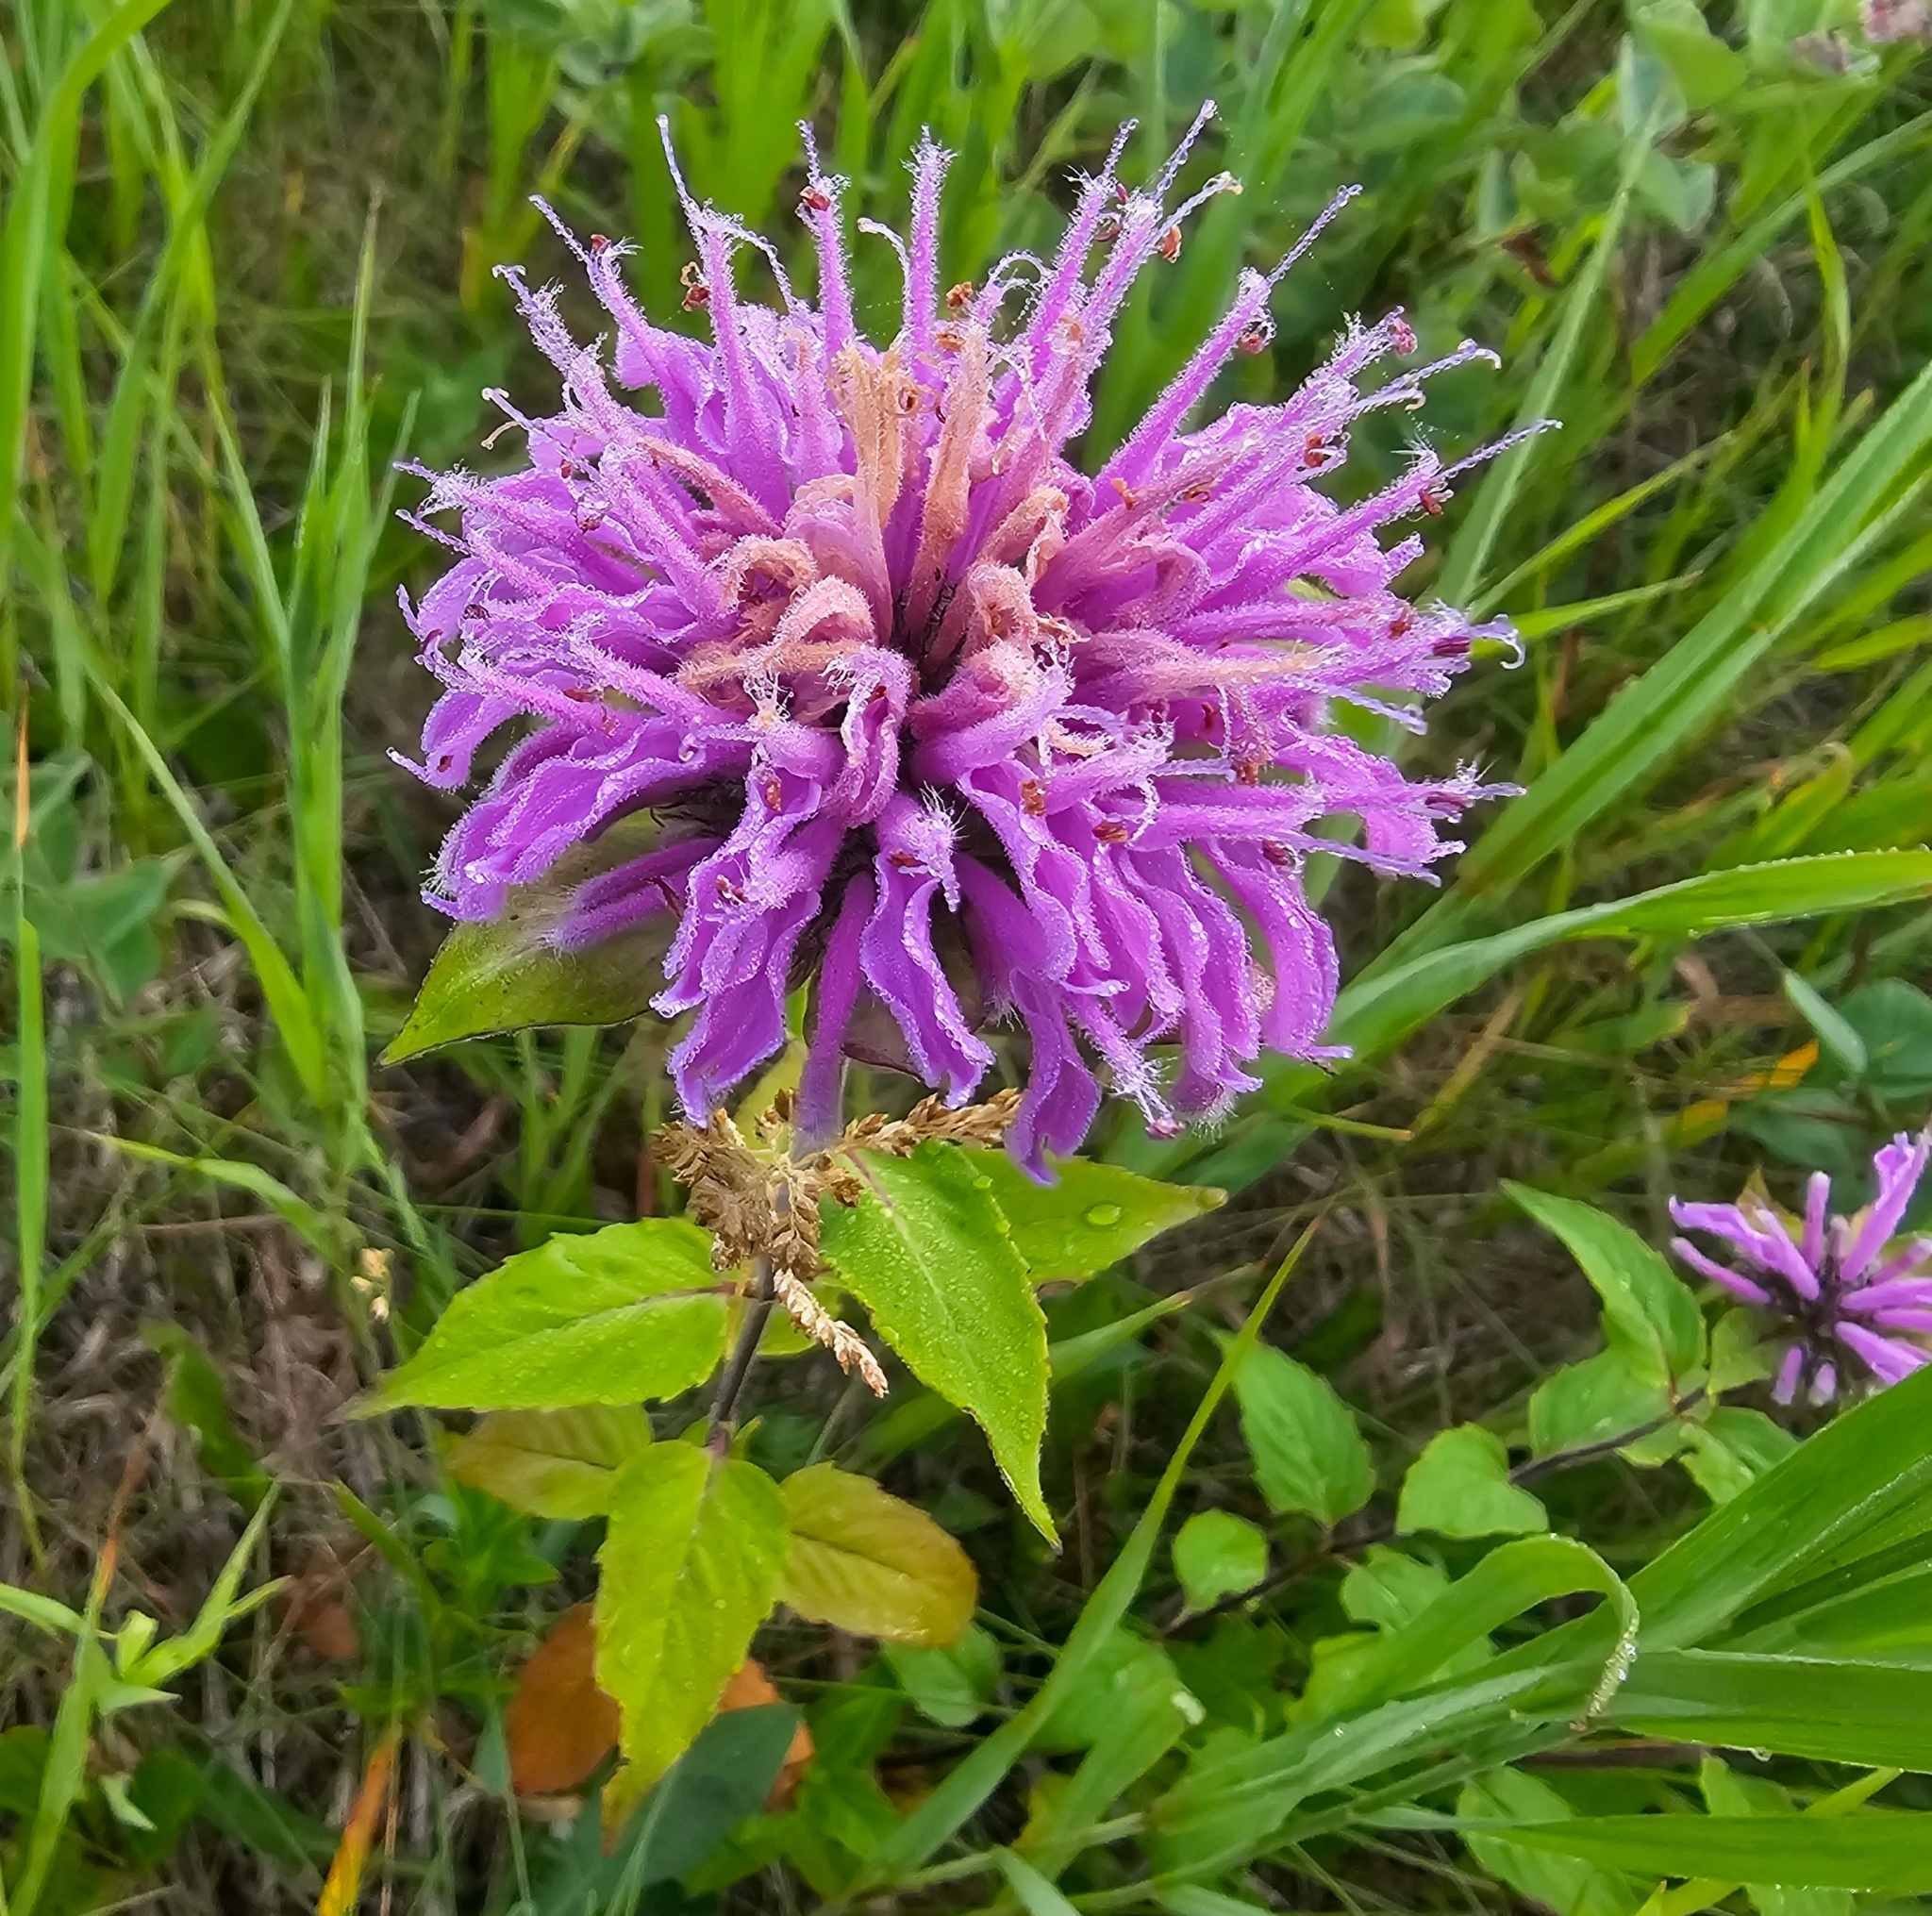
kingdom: Plantae
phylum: Tracheophyta
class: Magnoliopsida
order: Lamiales
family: Lamiaceae
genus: Monarda
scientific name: Monarda fistulosa
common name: Purple beebalm
